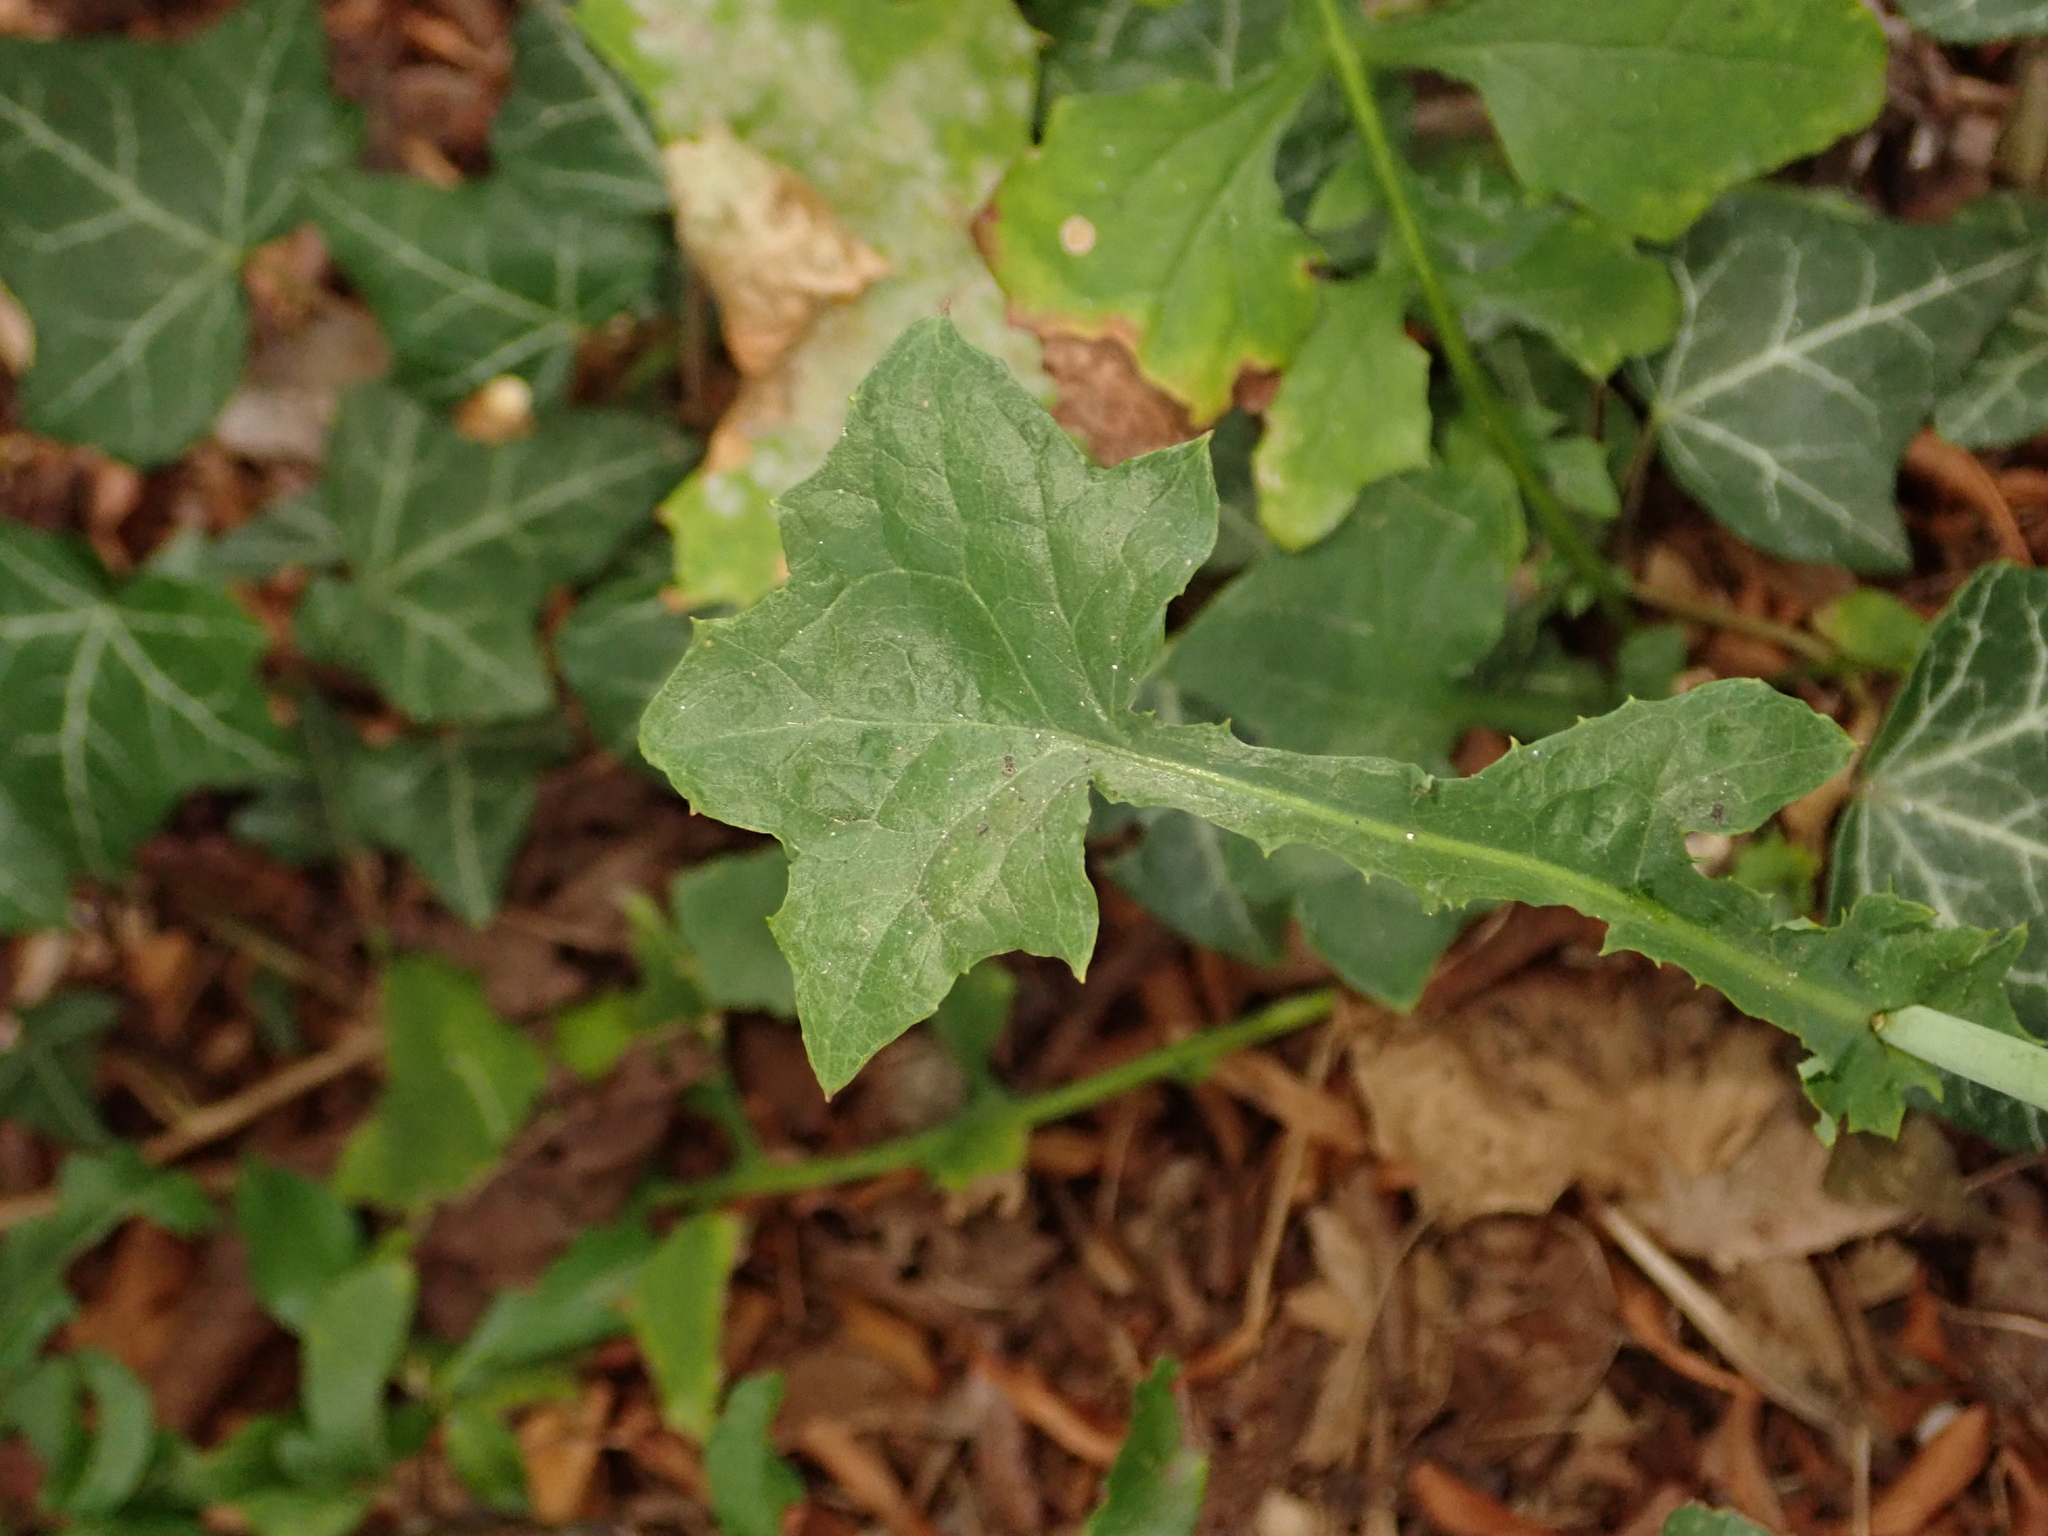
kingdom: Plantae
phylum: Tracheophyta
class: Magnoliopsida
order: Asterales
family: Asteraceae
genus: Mycelis
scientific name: Mycelis muralis
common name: Wall lettuce
